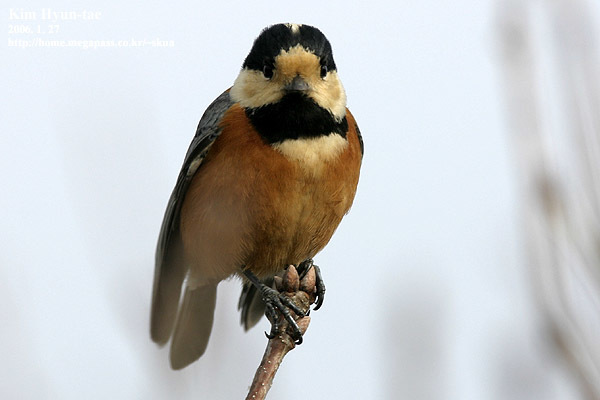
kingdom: Animalia
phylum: Chordata
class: Aves
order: Passeriformes
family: Paridae
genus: Poecile
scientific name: Poecile varius
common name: Varied tit
